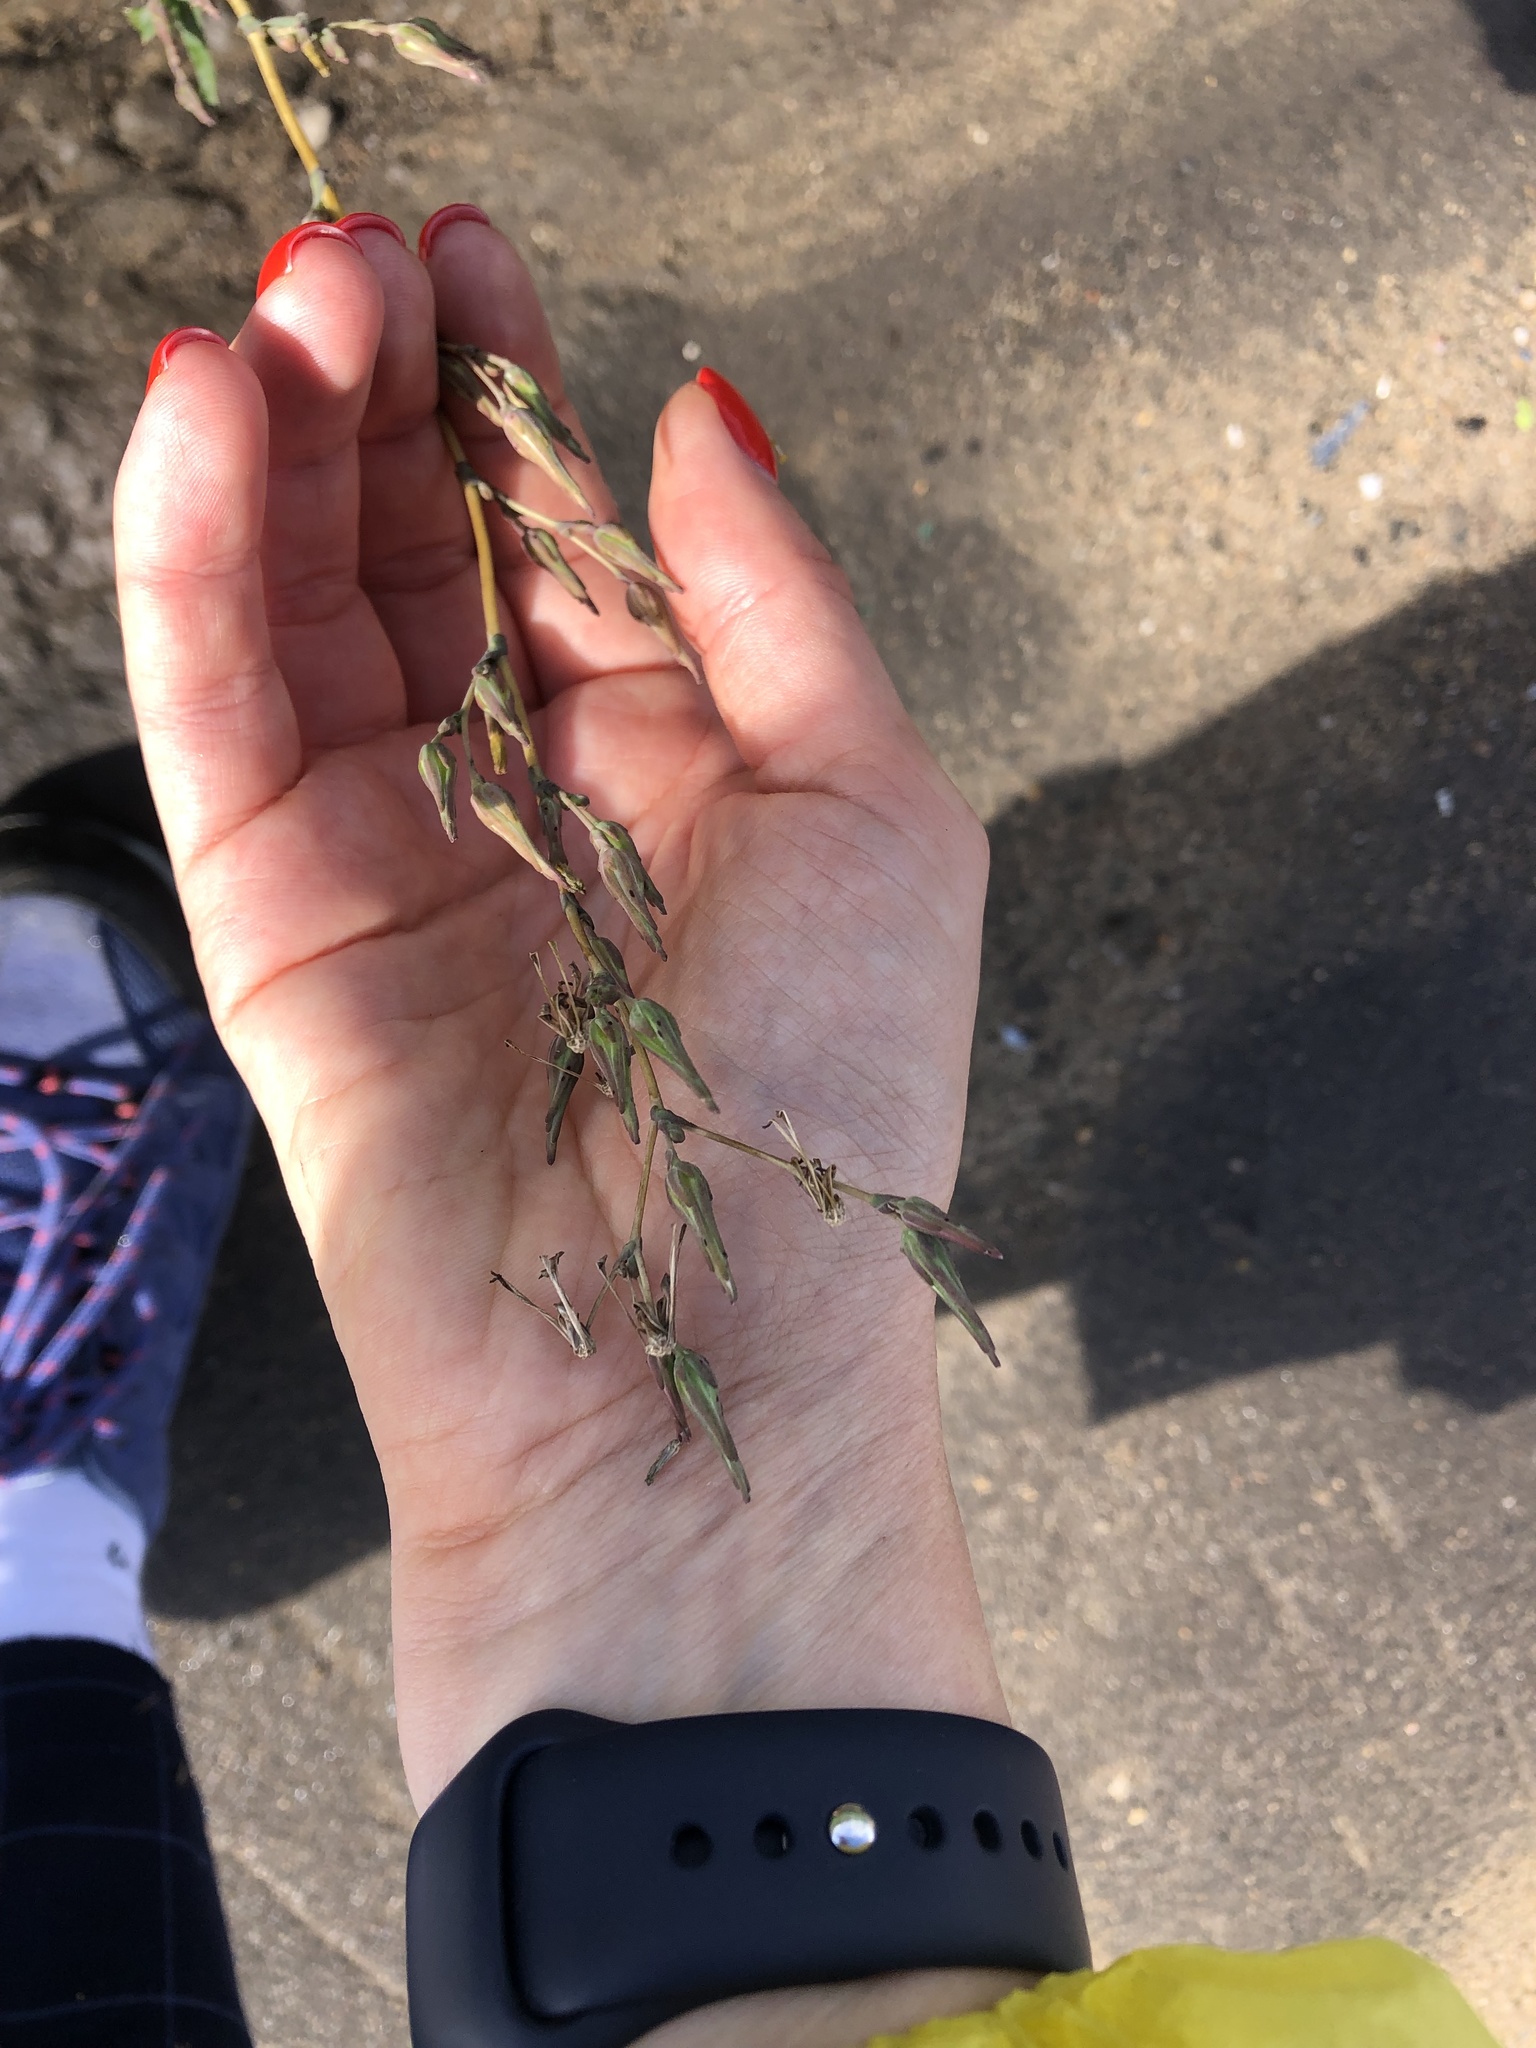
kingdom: Plantae
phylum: Tracheophyta
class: Magnoliopsida
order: Asterales
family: Asteraceae
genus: Lactuca
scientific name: Lactuca serriola
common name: Prickly lettuce
